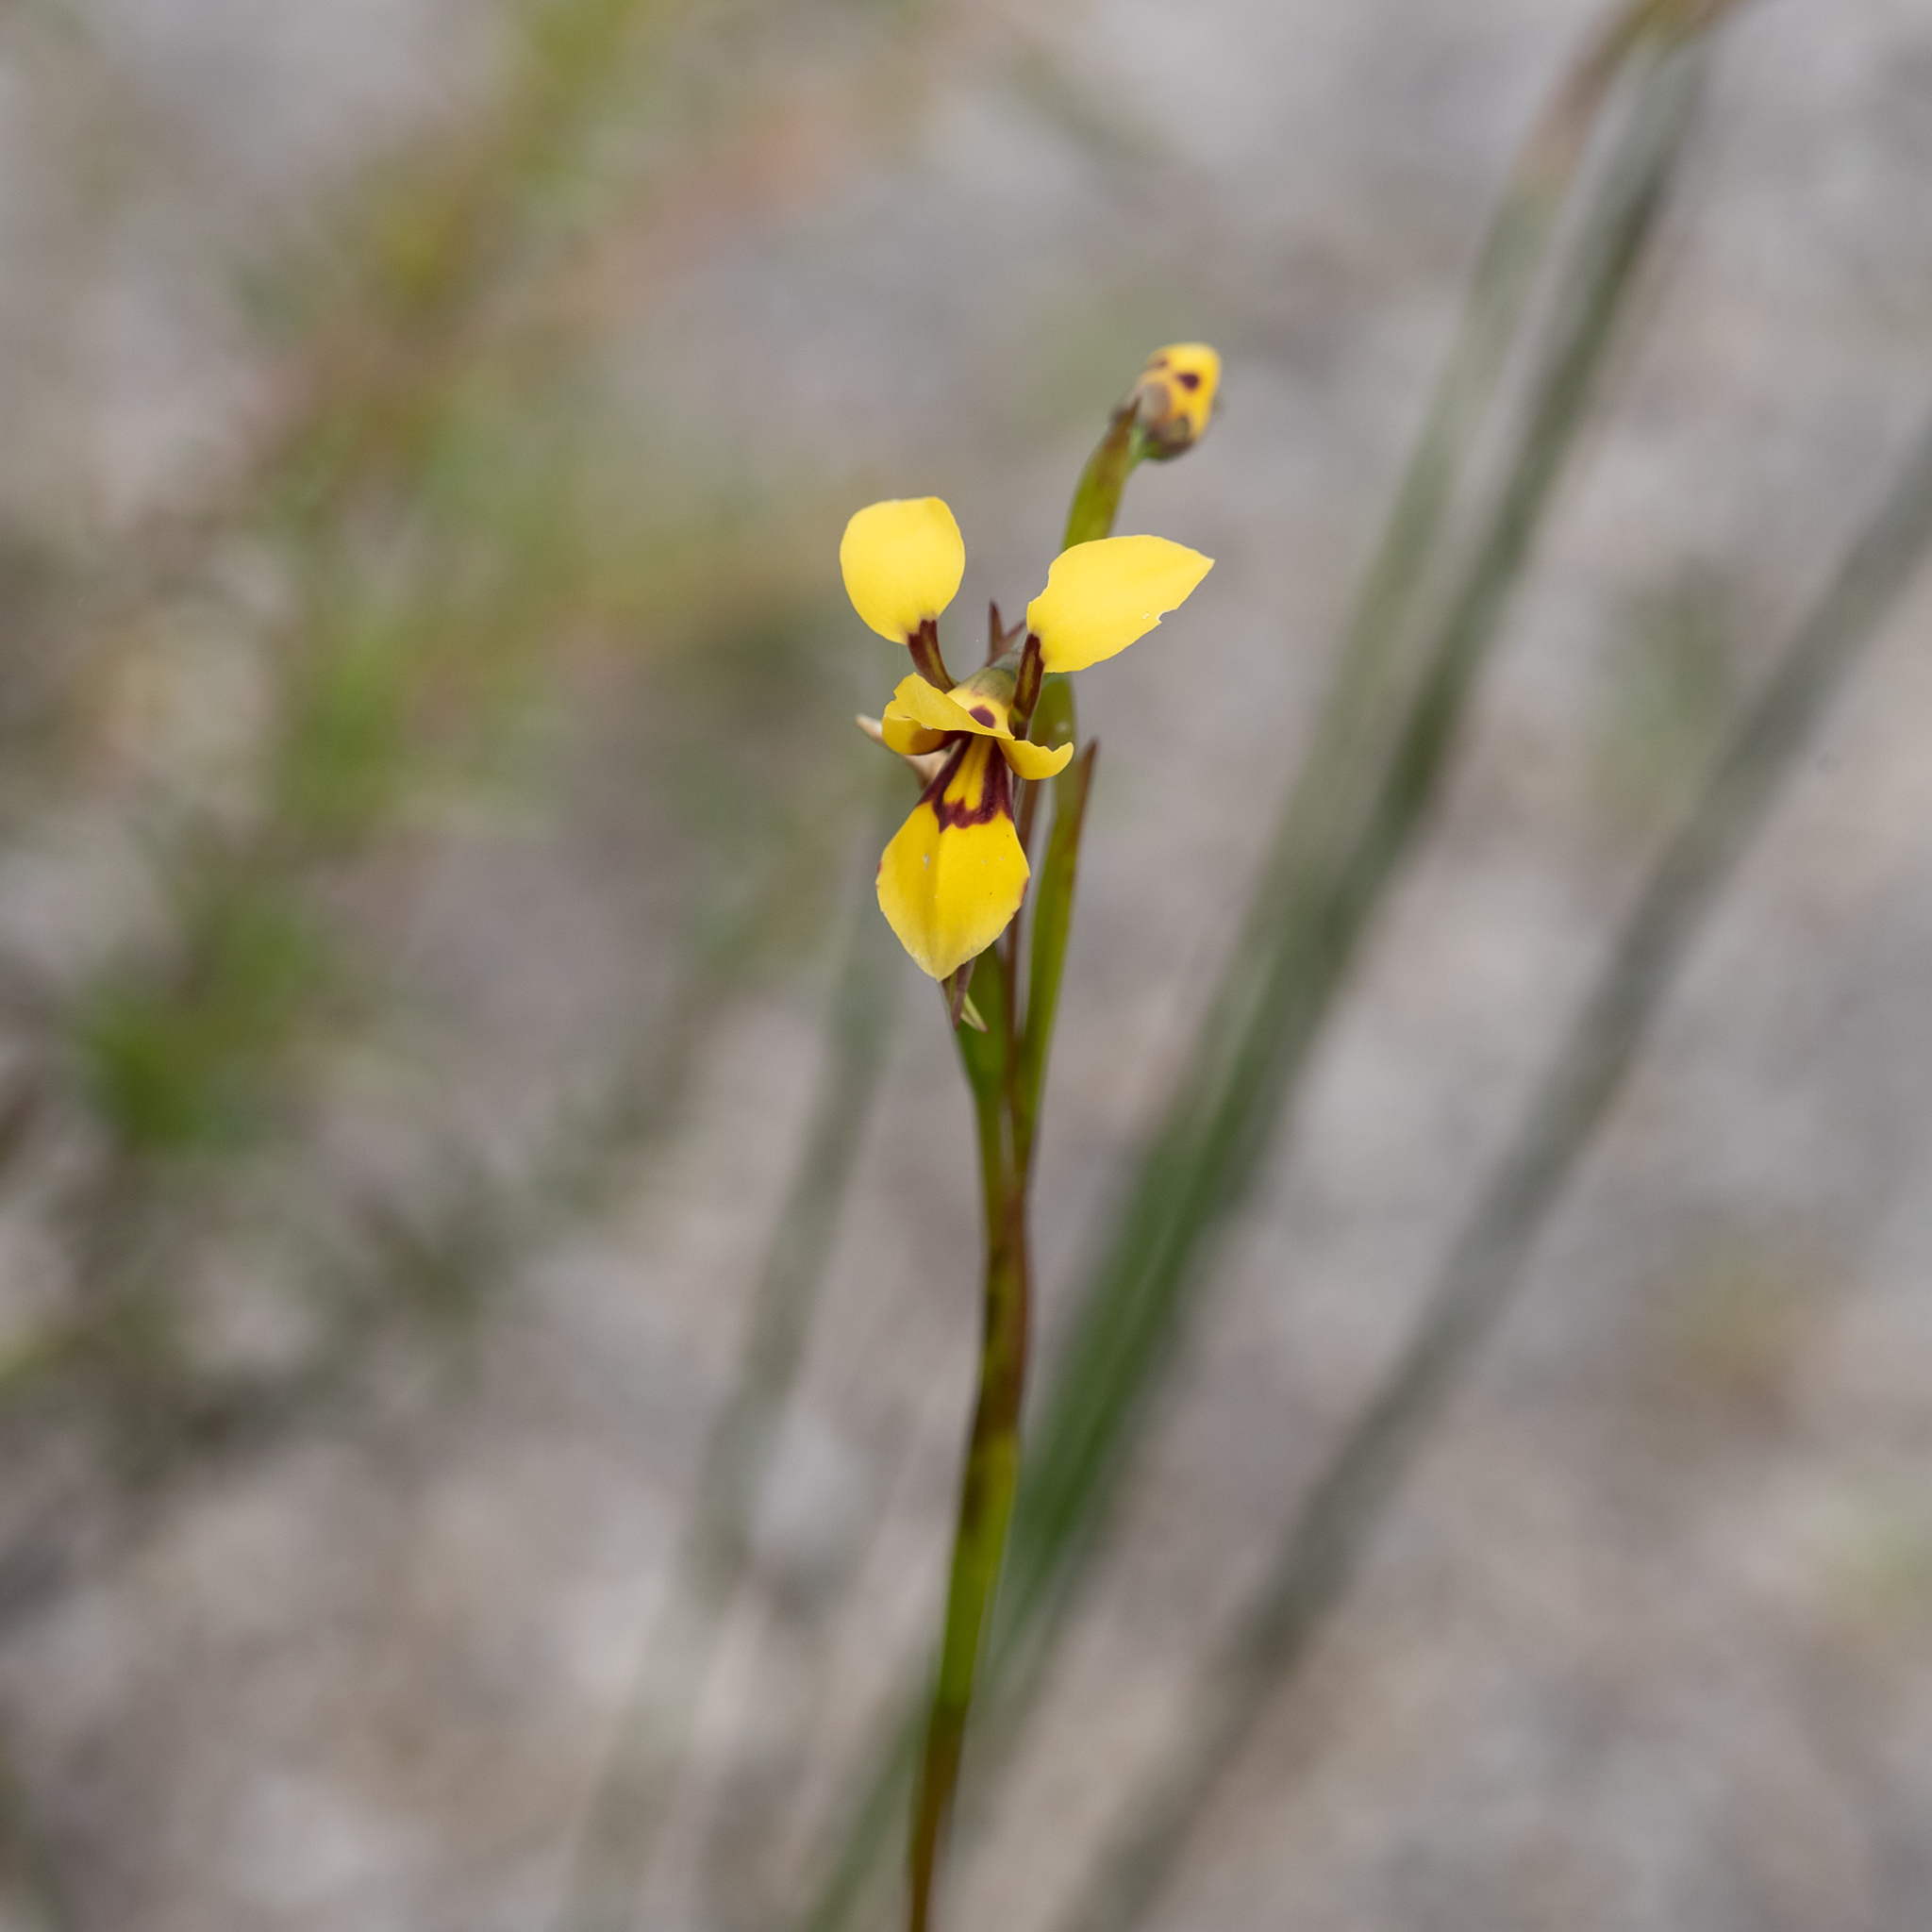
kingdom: Plantae
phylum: Tracheophyta
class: Liliopsida
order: Asparagales
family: Orchidaceae
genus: Diuris
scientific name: Diuris brevifolia
